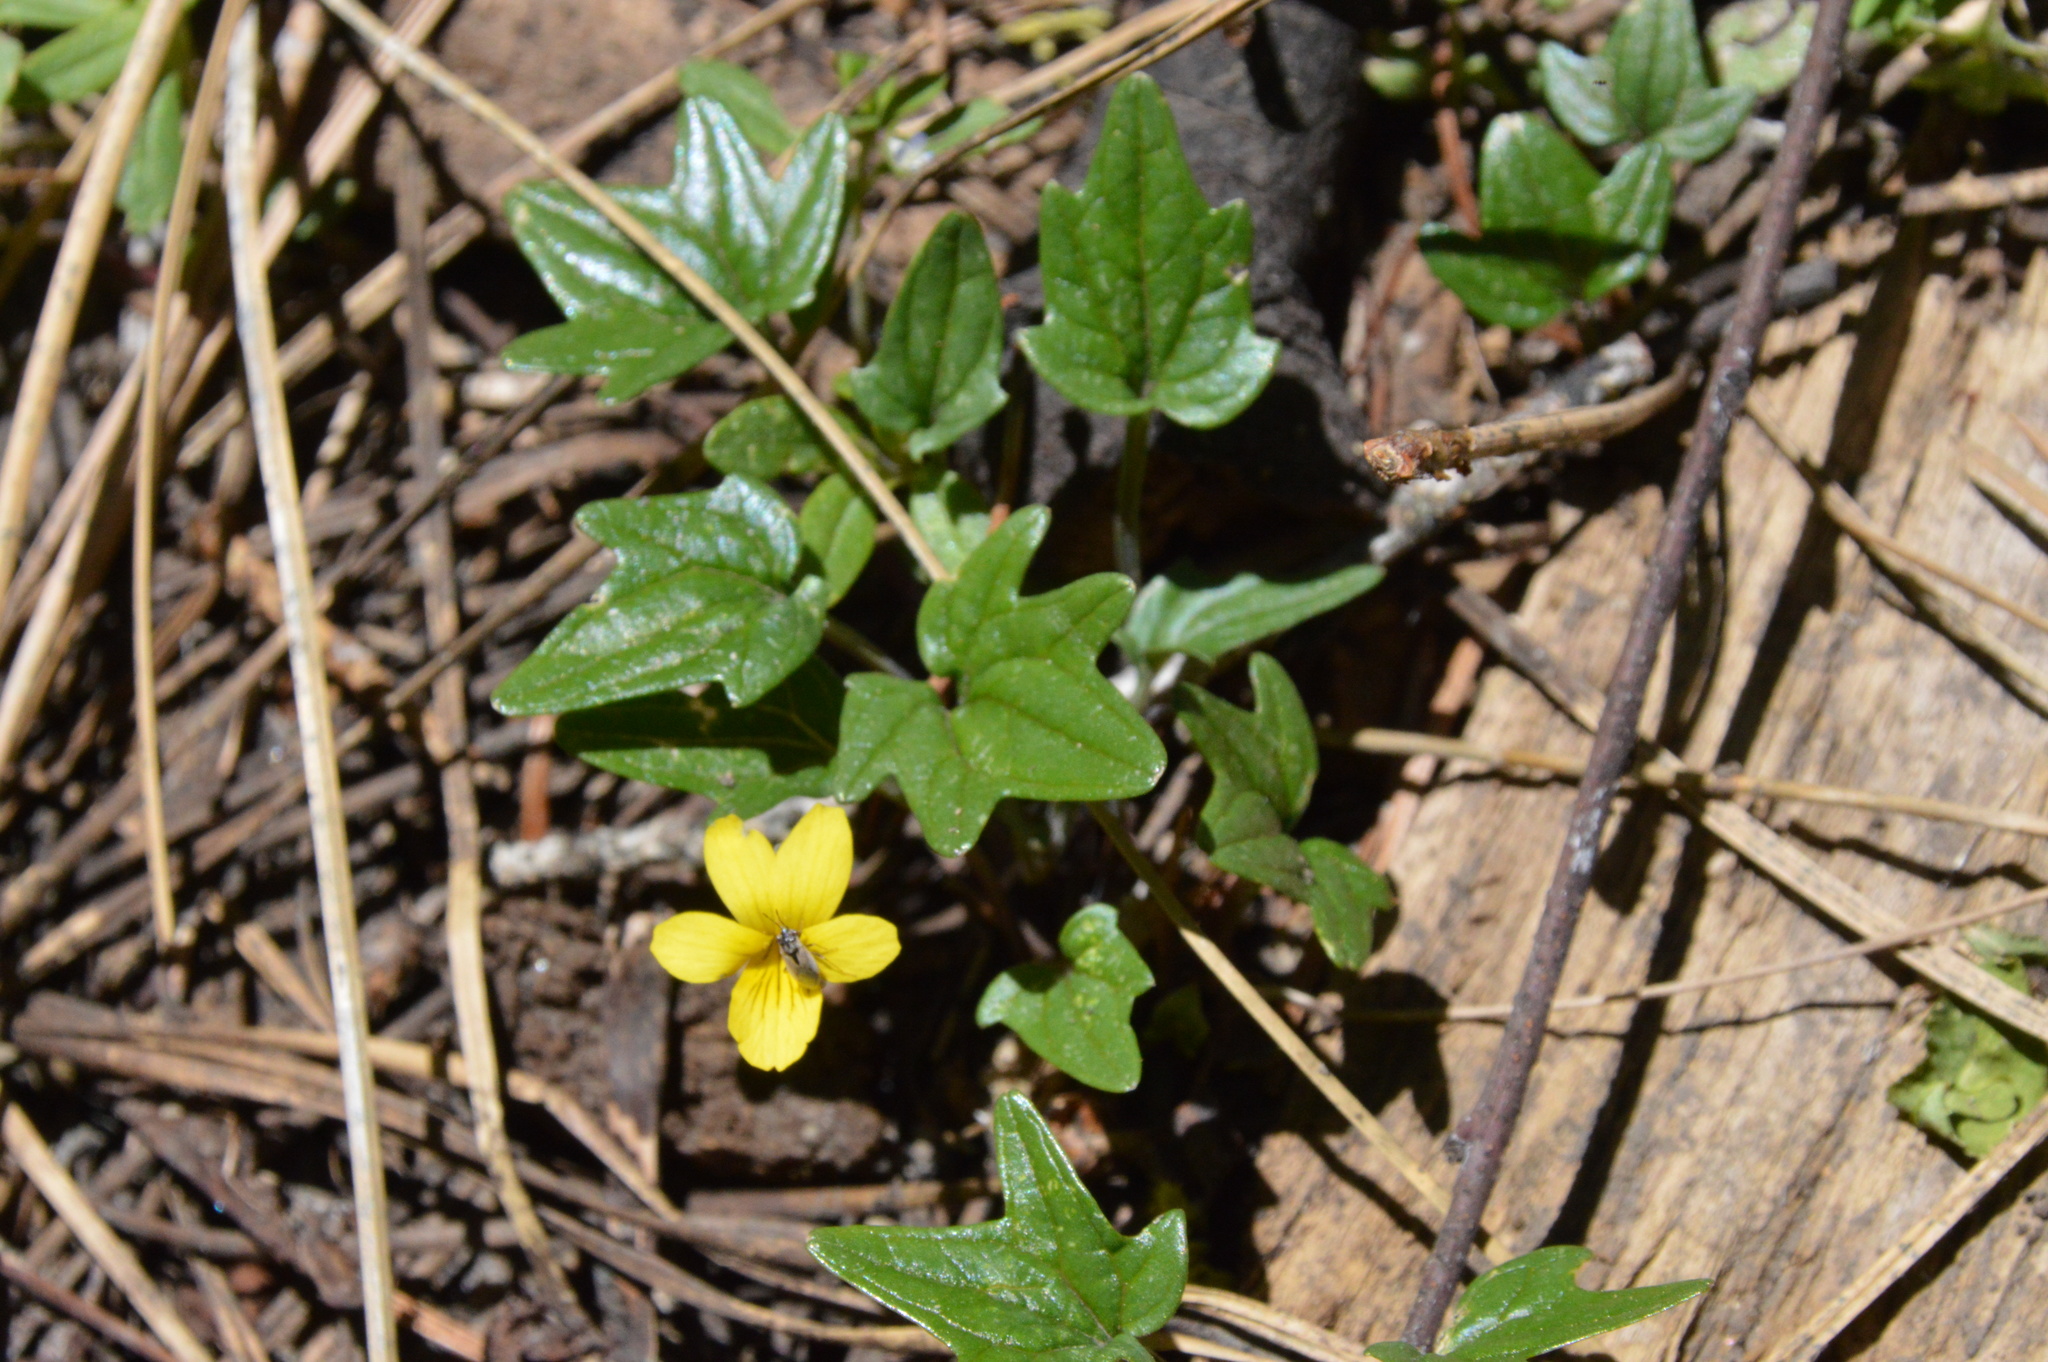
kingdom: Plantae
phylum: Tracheophyta
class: Magnoliopsida
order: Malpighiales
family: Violaceae
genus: Viola
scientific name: Viola purpurea
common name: Pine violet
